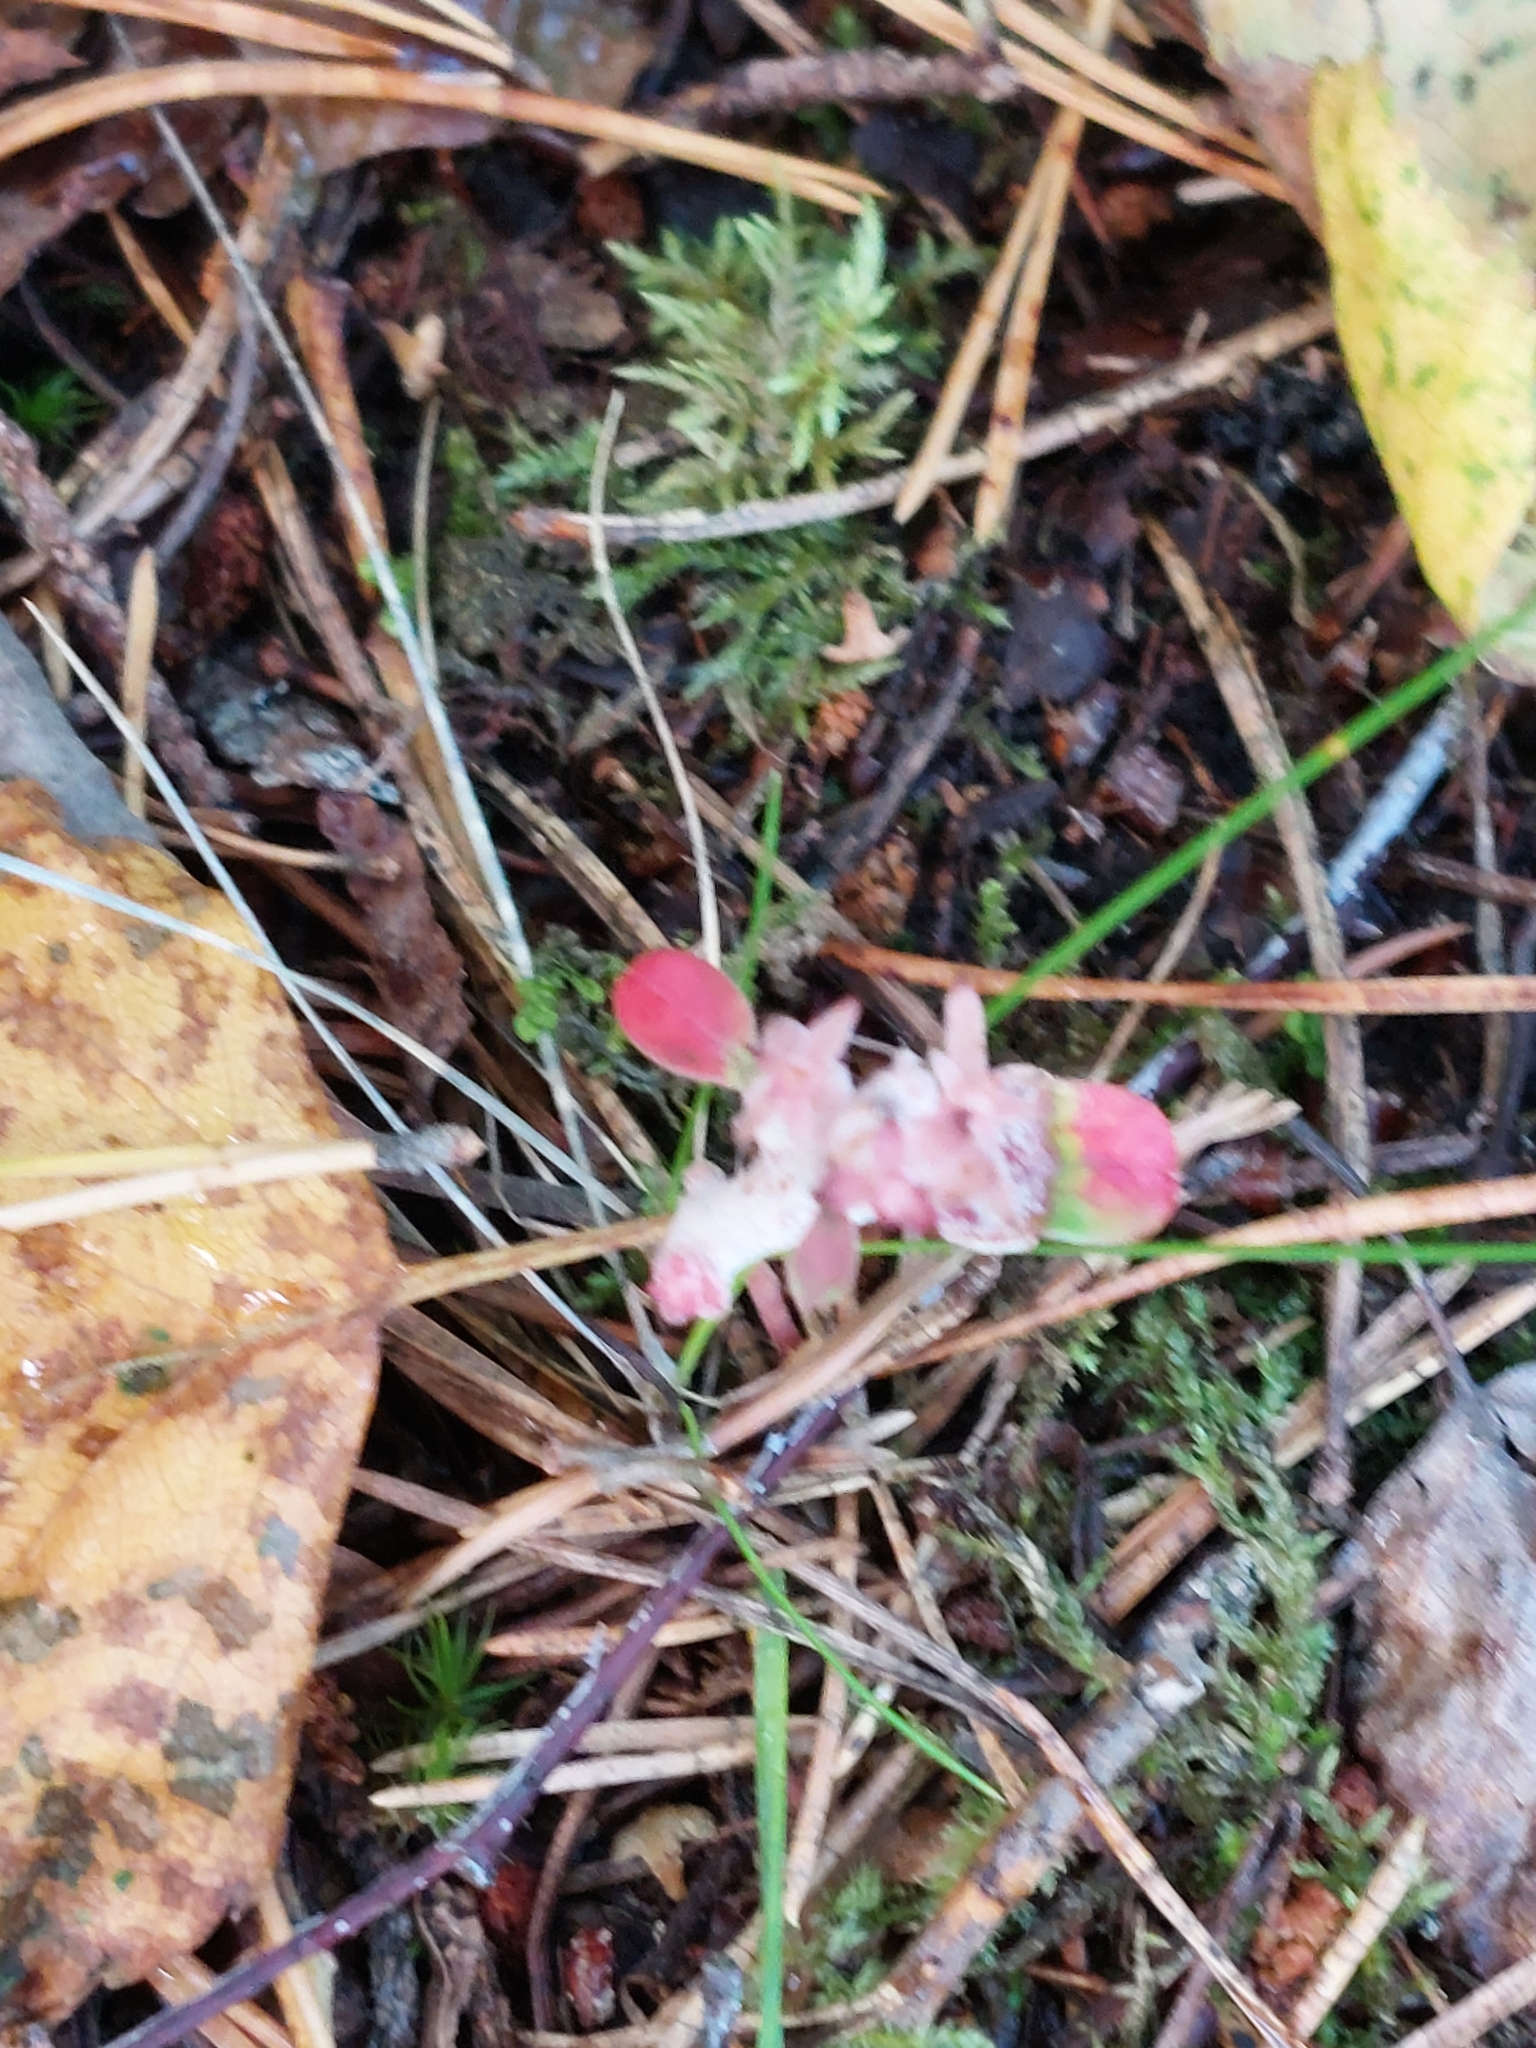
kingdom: Fungi
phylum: Basidiomycota
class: Exobasidiomycetes
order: Exobasidiales
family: Exobasidiaceae
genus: Exobasidium
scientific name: Exobasidium vaccinii
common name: Cowberry redleaf
